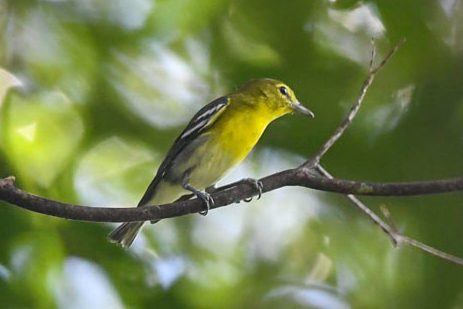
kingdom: Animalia
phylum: Chordata
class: Aves
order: Passeriformes
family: Vireonidae
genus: Vireo
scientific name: Vireo flavifrons
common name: Yellow-throated vireo
